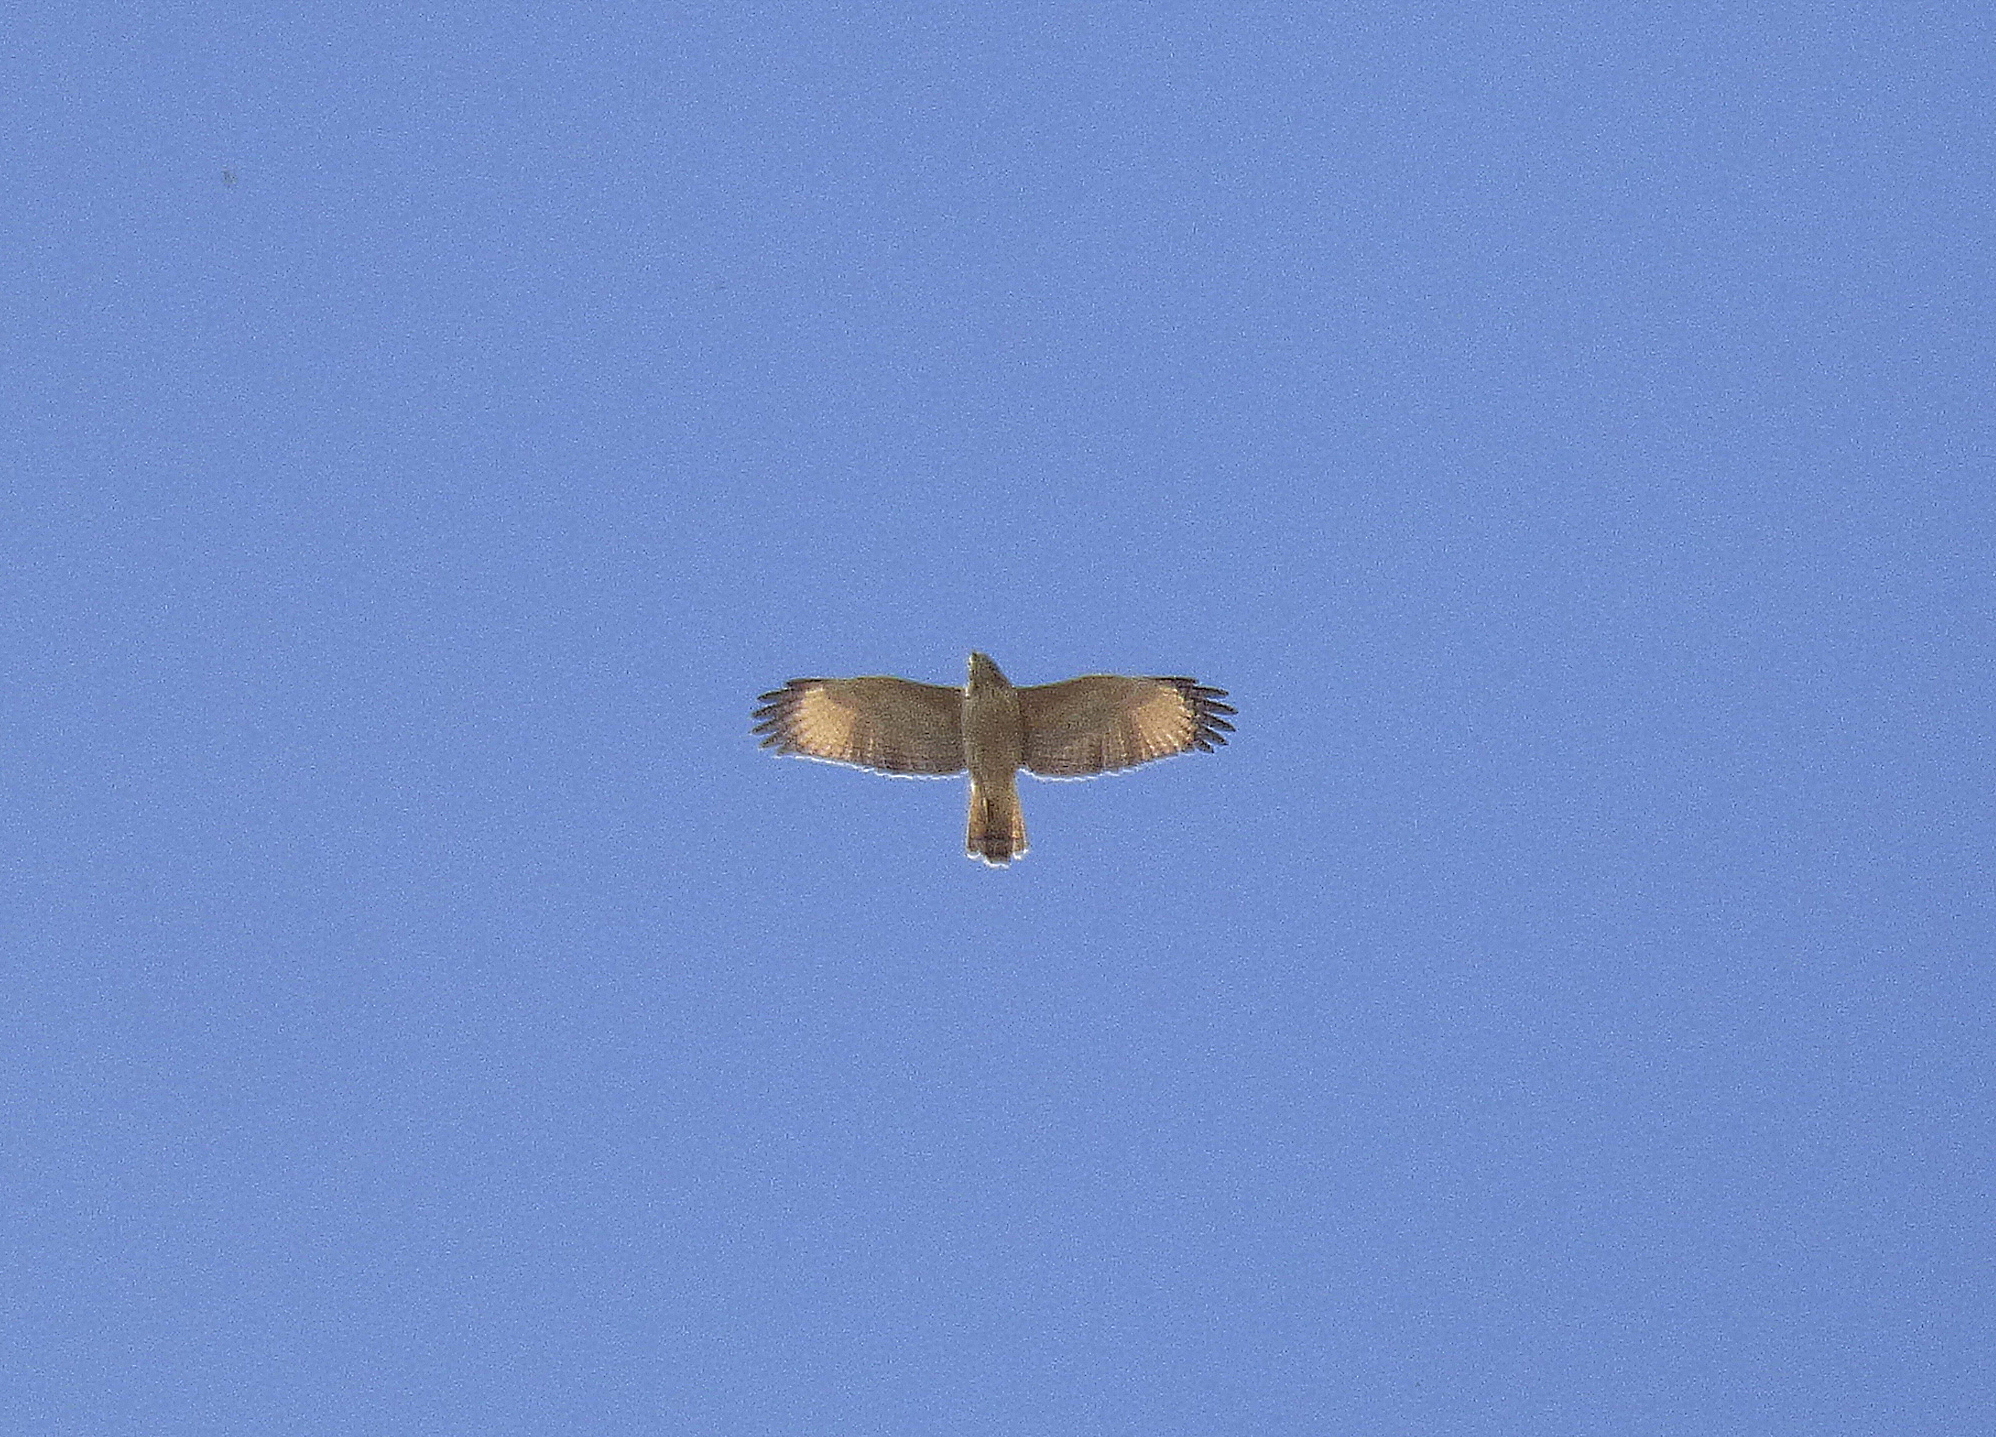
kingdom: Animalia
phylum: Chordata
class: Aves
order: Accipitriformes
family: Accipitridae
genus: Rupornis
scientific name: Rupornis magnirostris
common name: Roadside hawk
